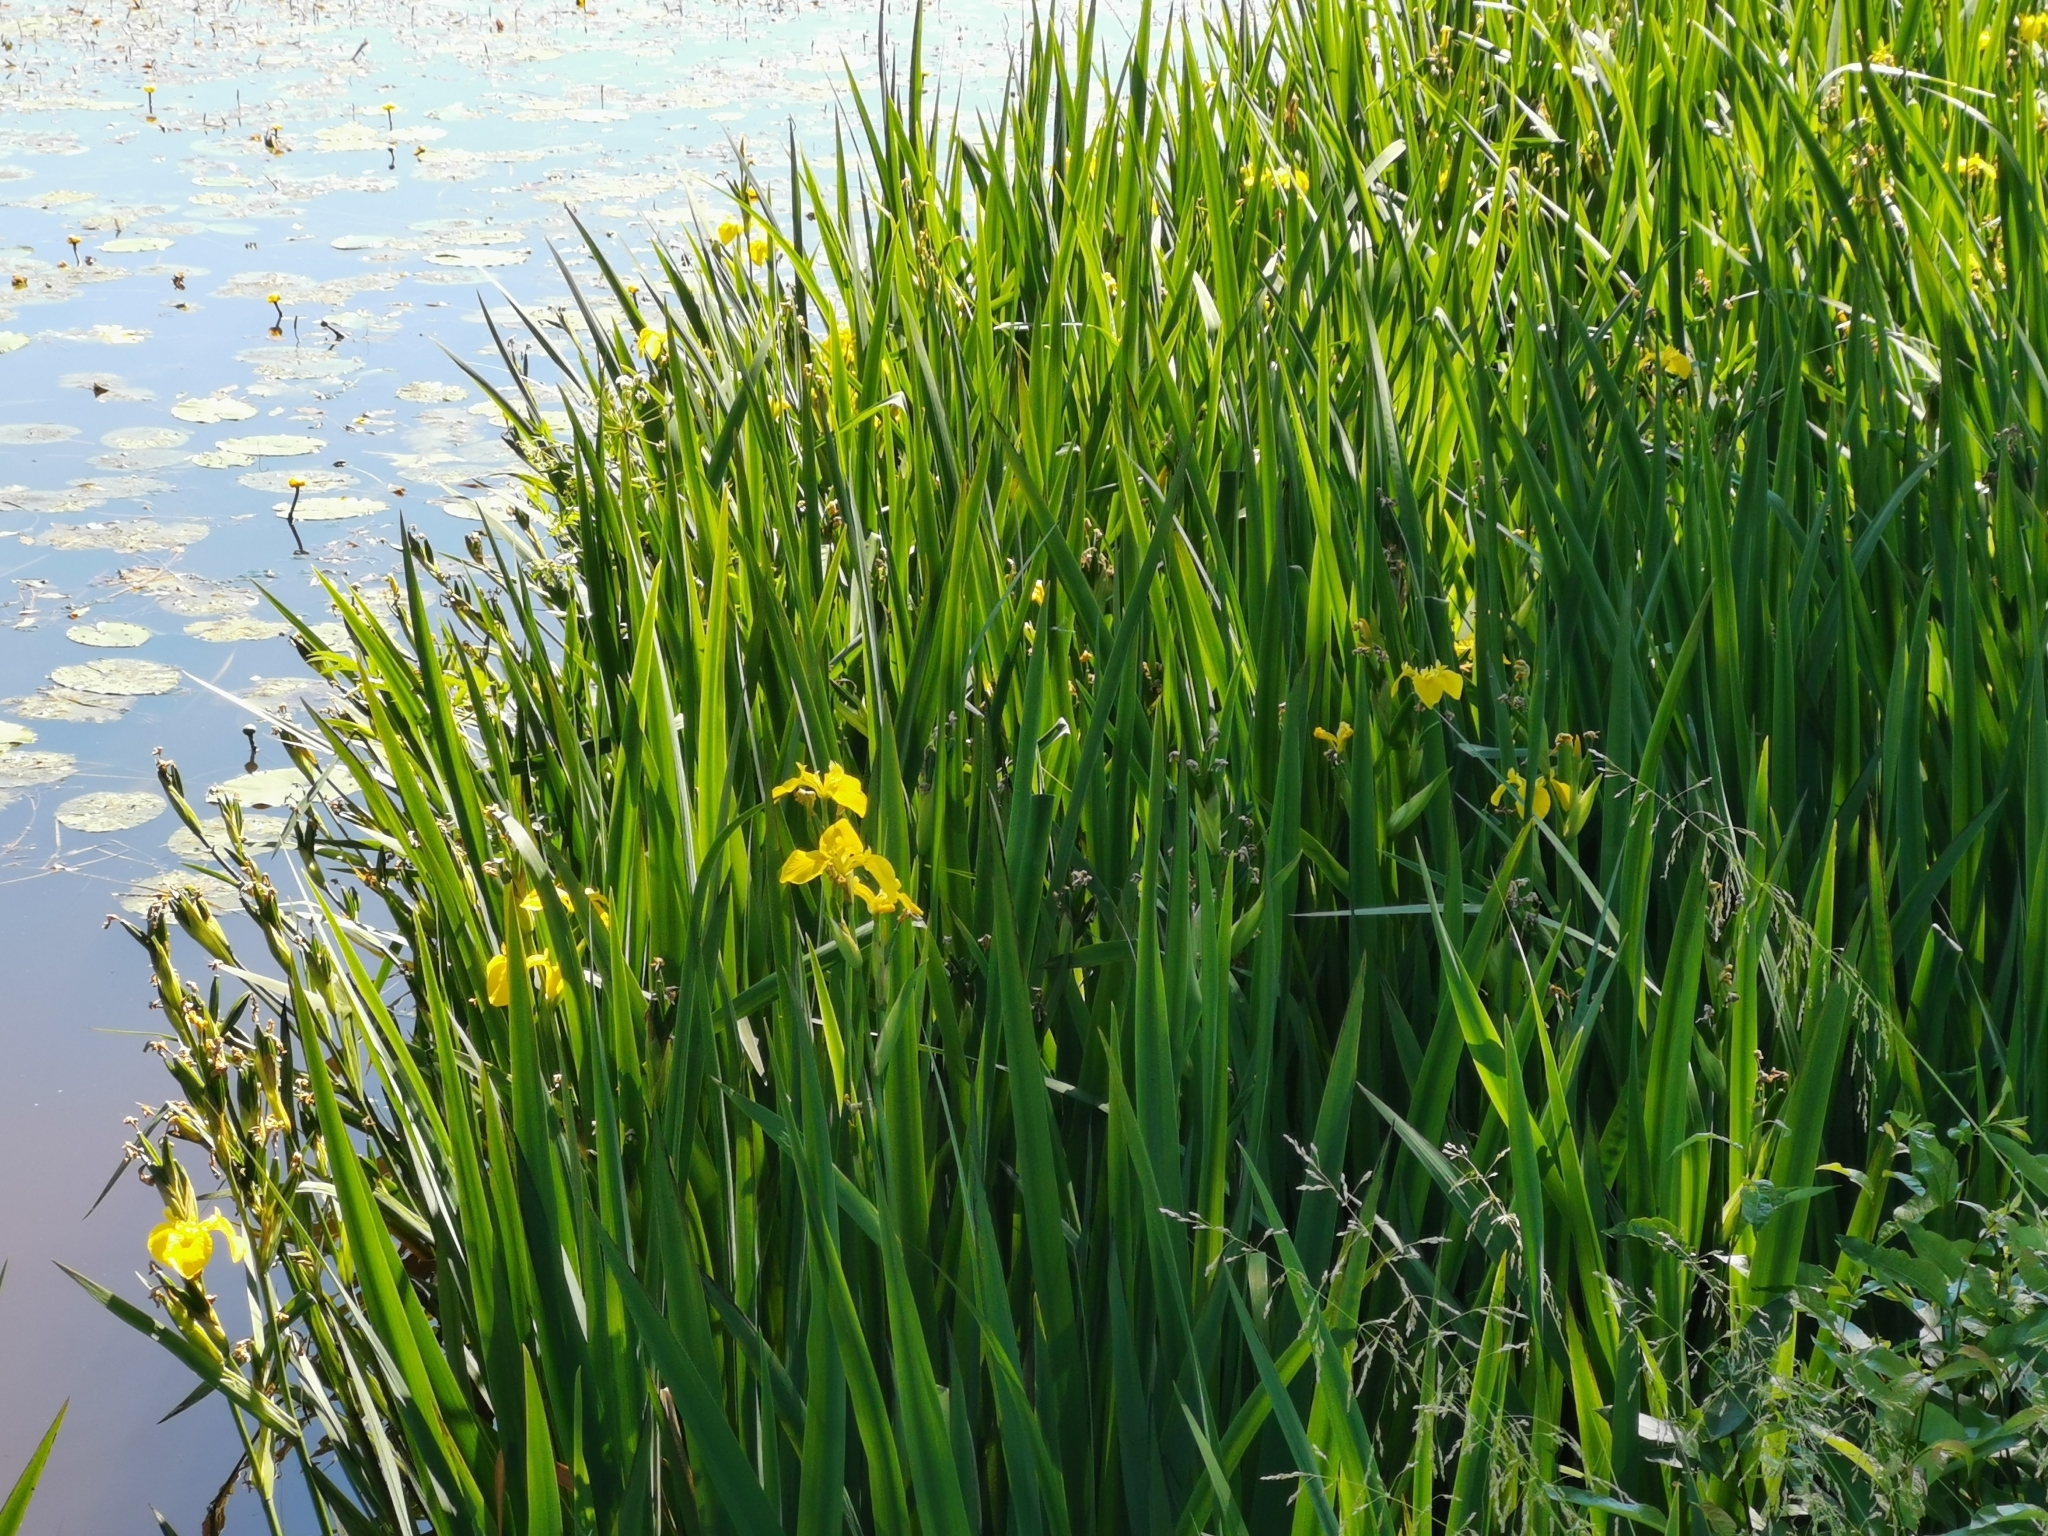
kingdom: Plantae
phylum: Tracheophyta
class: Liliopsida
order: Asparagales
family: Iridaceae
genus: Iris
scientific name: Iris pseudacorus
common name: Yellow flag
